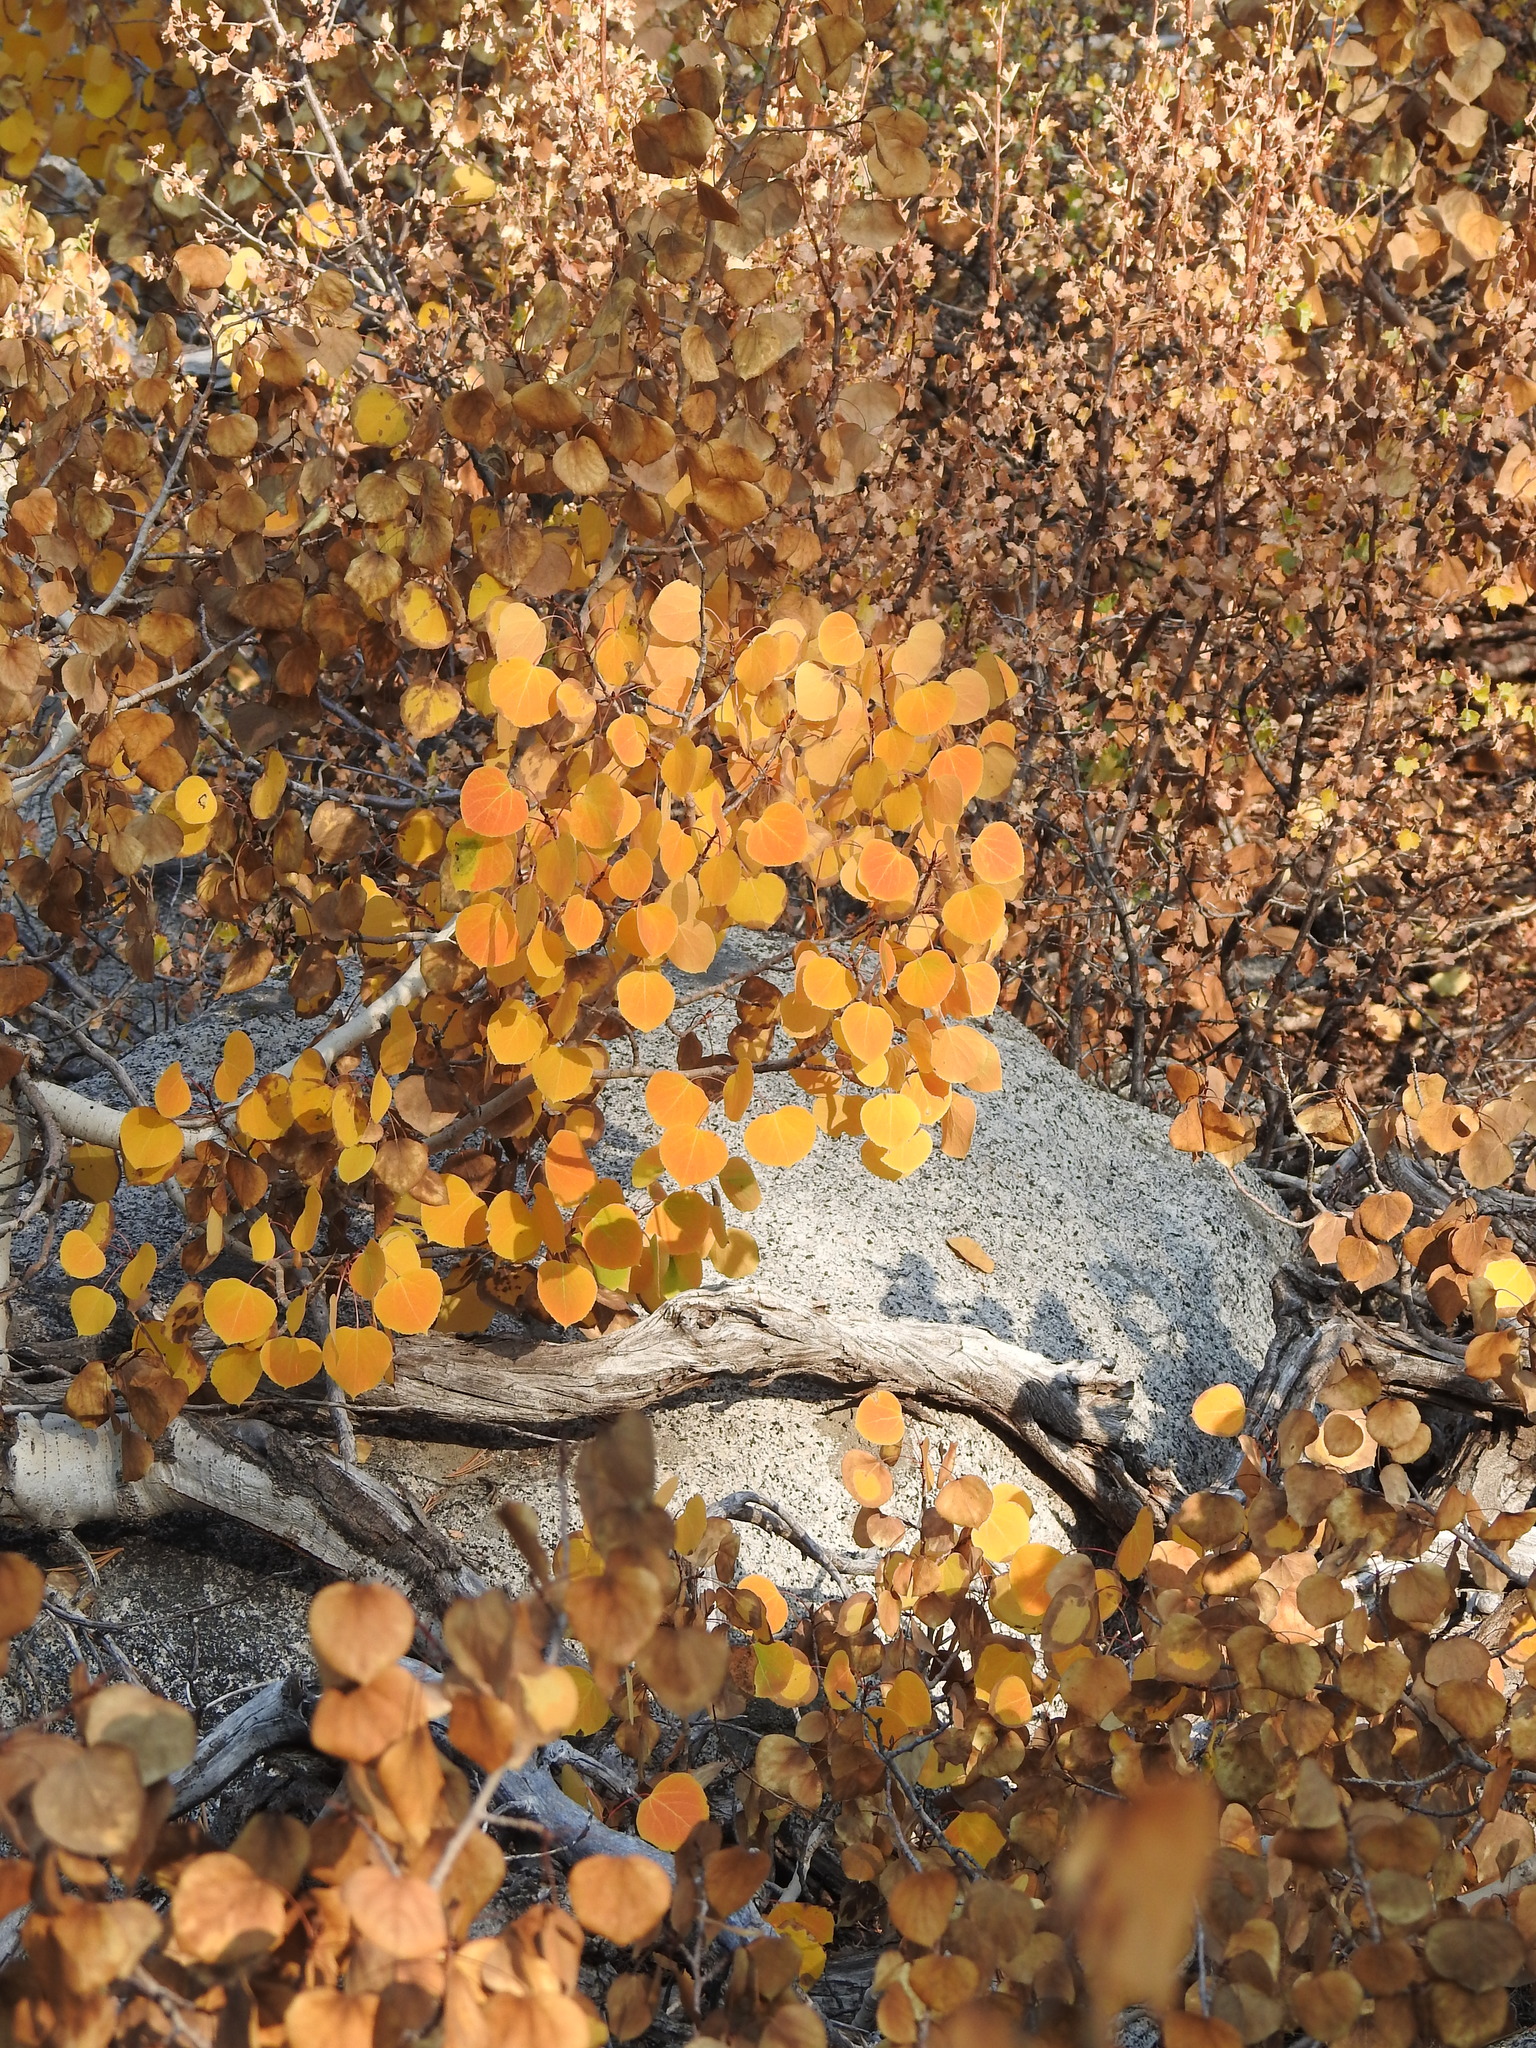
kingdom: Plantae
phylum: Tracheophyta
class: Magnoliopsida
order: Malpighiales
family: Salicaceae
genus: Populus
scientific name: Populus tremuloides
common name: Quaking aspen
